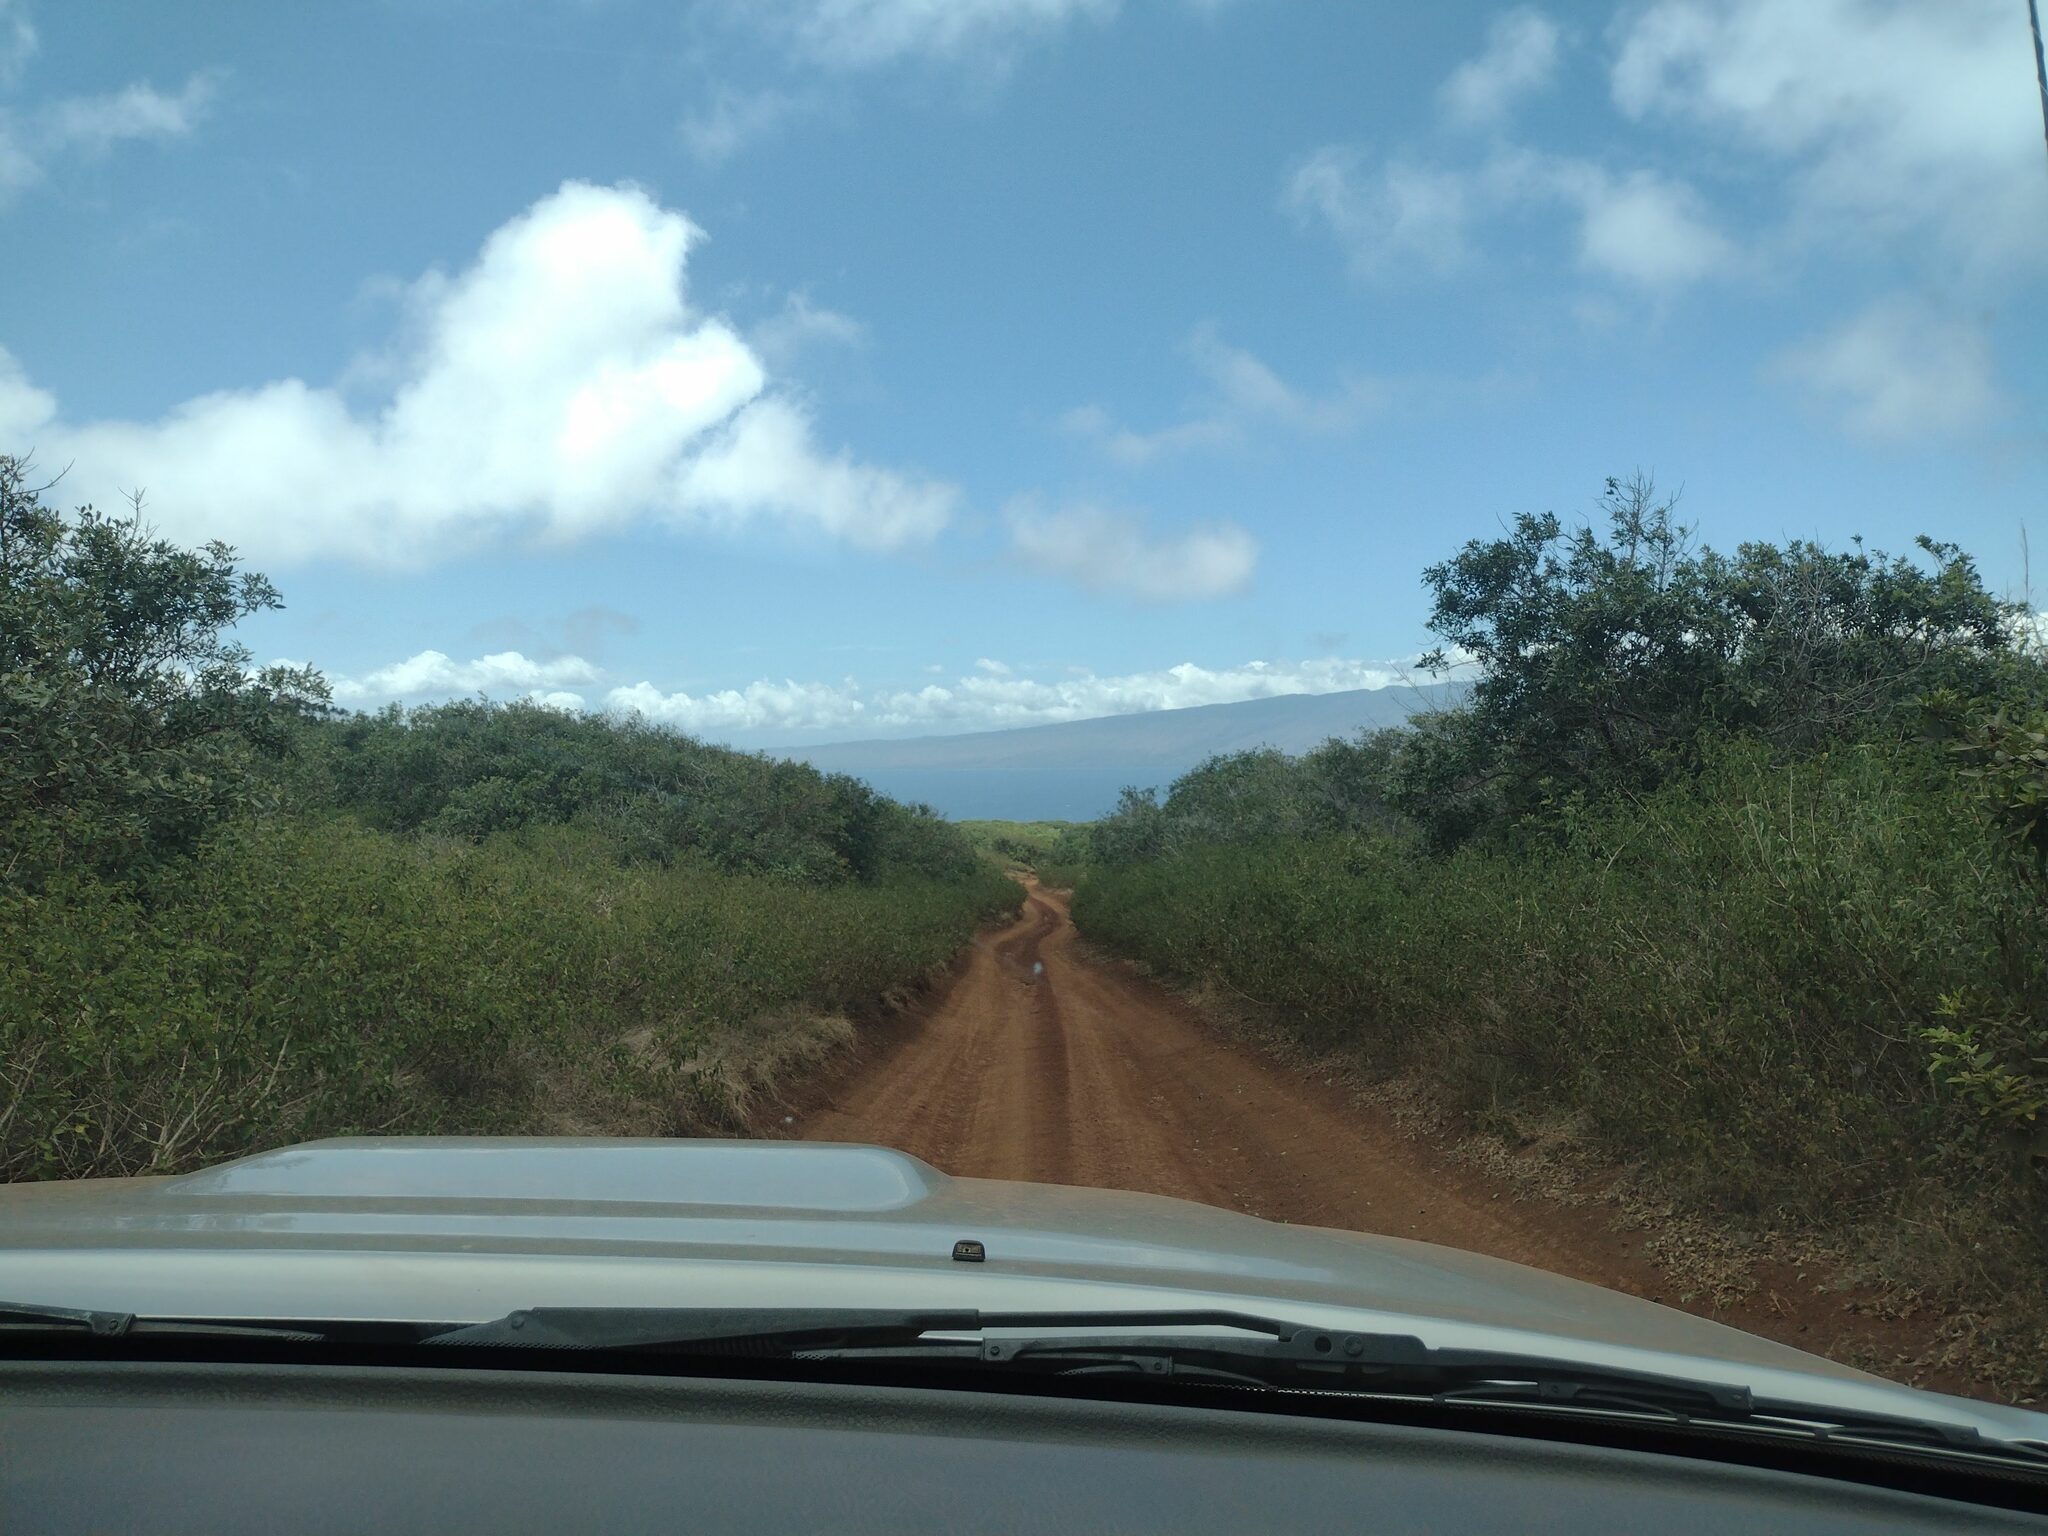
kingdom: Plantae
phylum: Tracheophyta
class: Magnoliopsida
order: Lamiales
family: Verbenaceae
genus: Lantana
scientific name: Lantana camara
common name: Lantana
